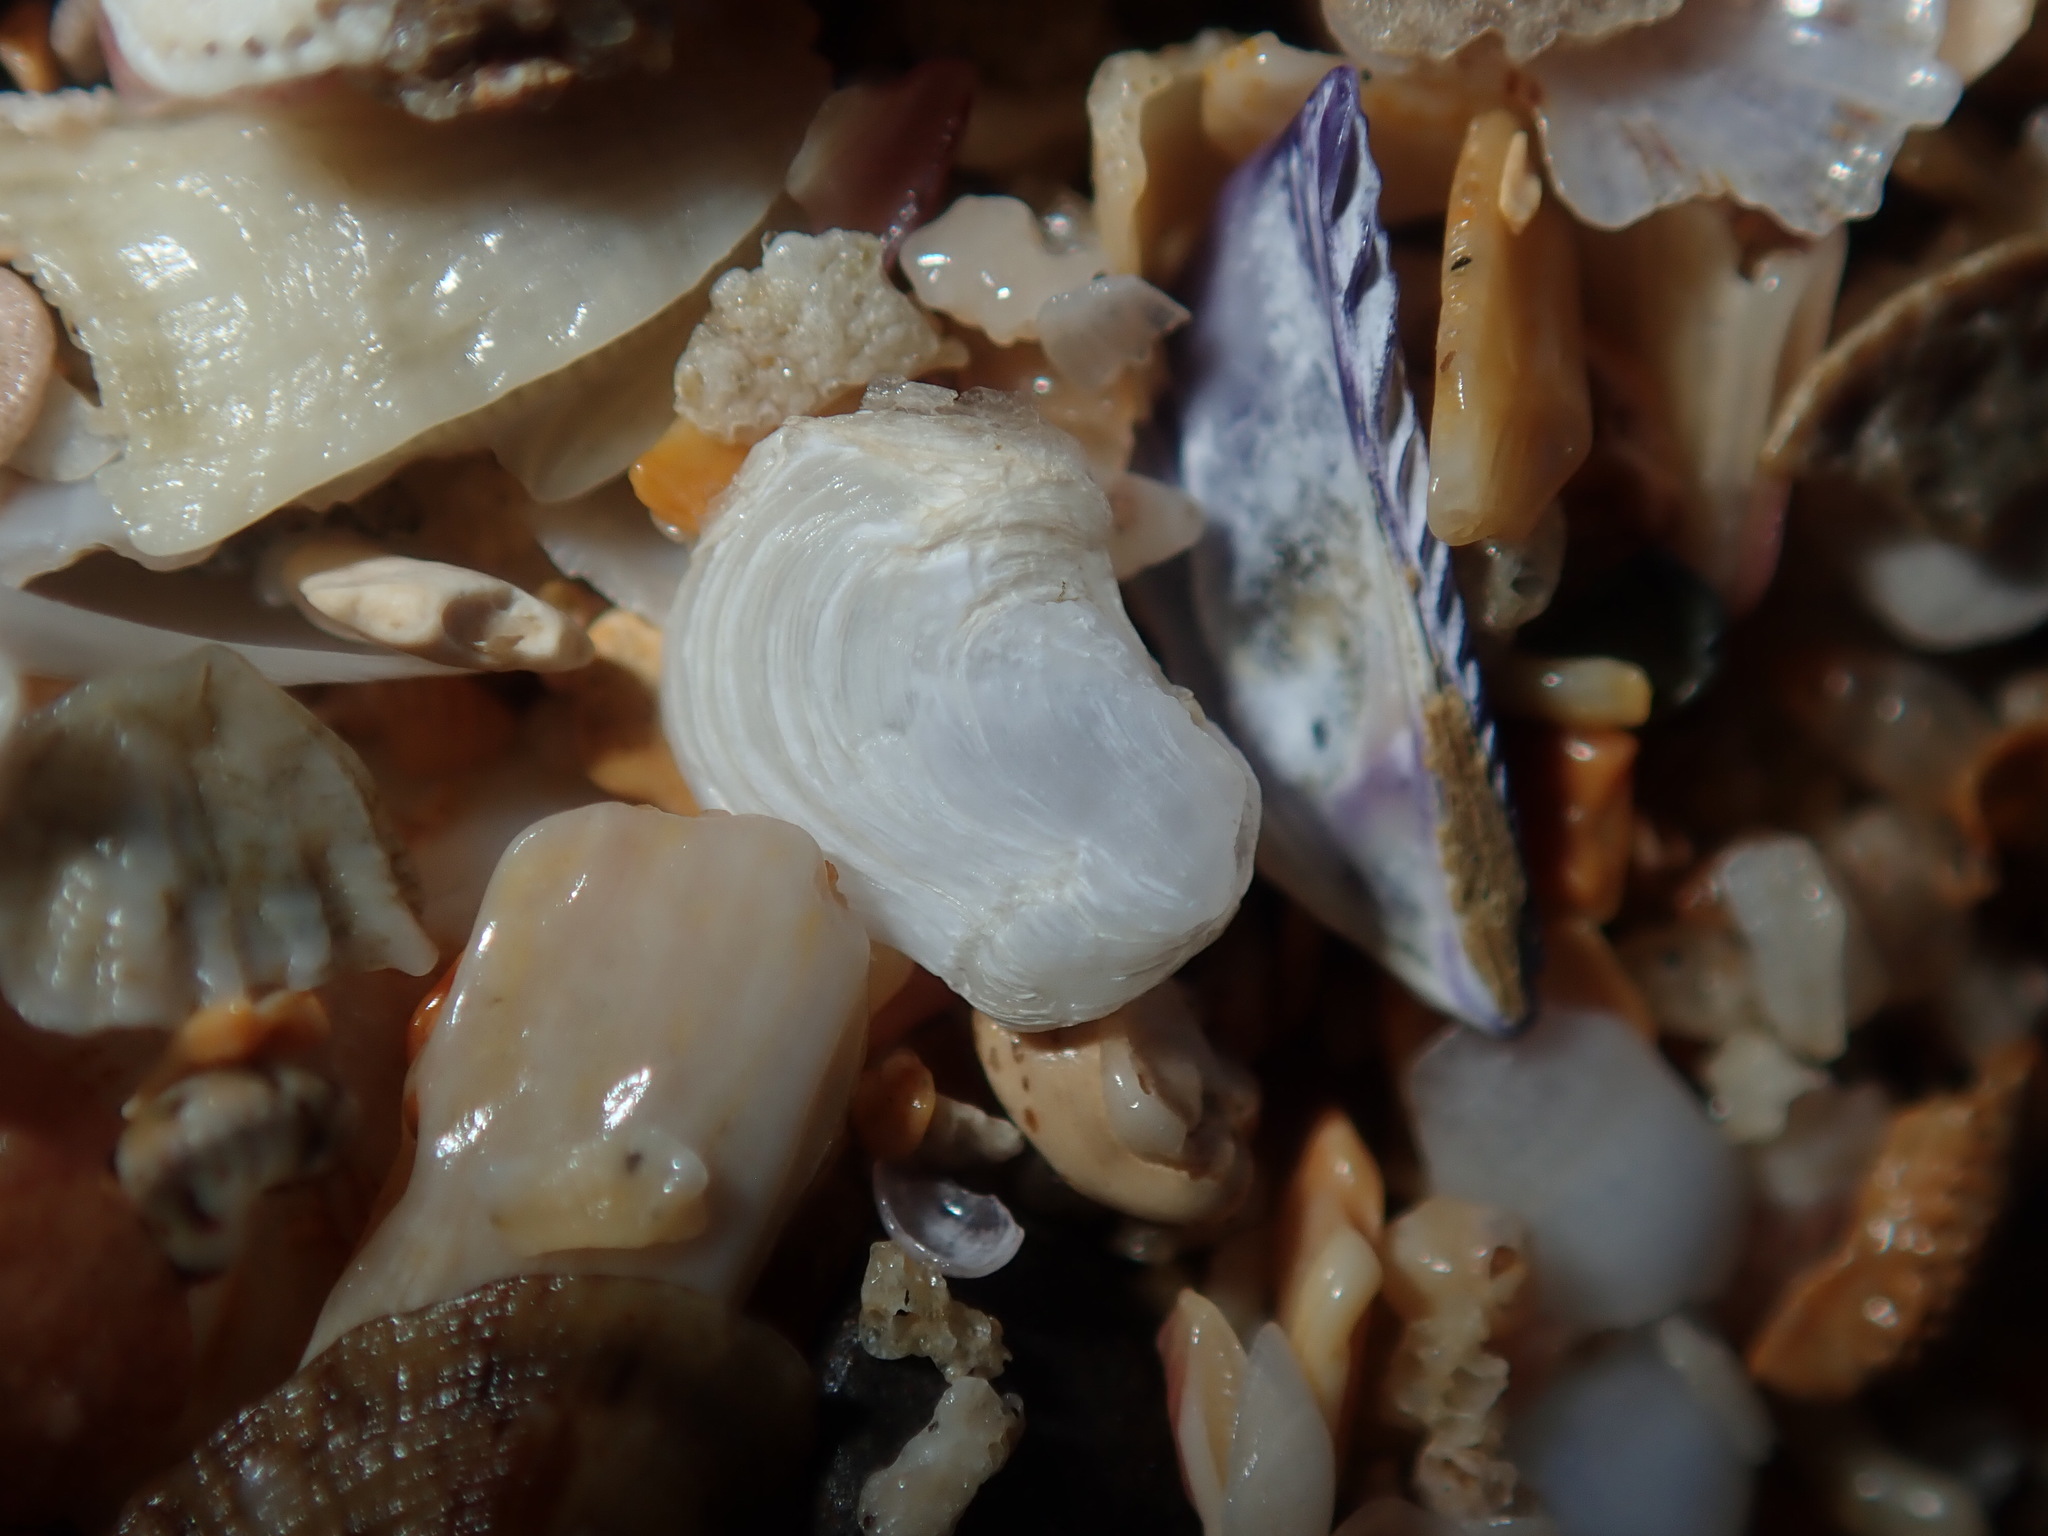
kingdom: Animalia
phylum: Mollusca
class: Bivalvia
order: Adapedonta
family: Hiatellidae
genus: Hiatella
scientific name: Hiatella australis
